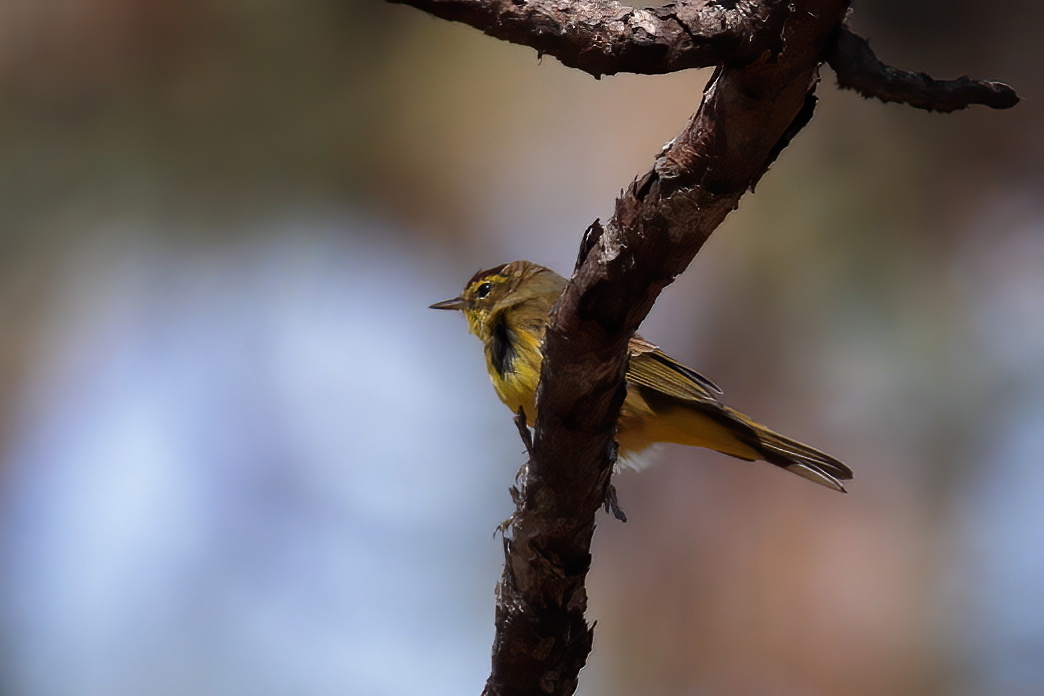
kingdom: Animalia
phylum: Chordata
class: Aves
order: Passeriformes
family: Parulidae
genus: Setophaga
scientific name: Setophaga palmarum
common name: Palm warbler
